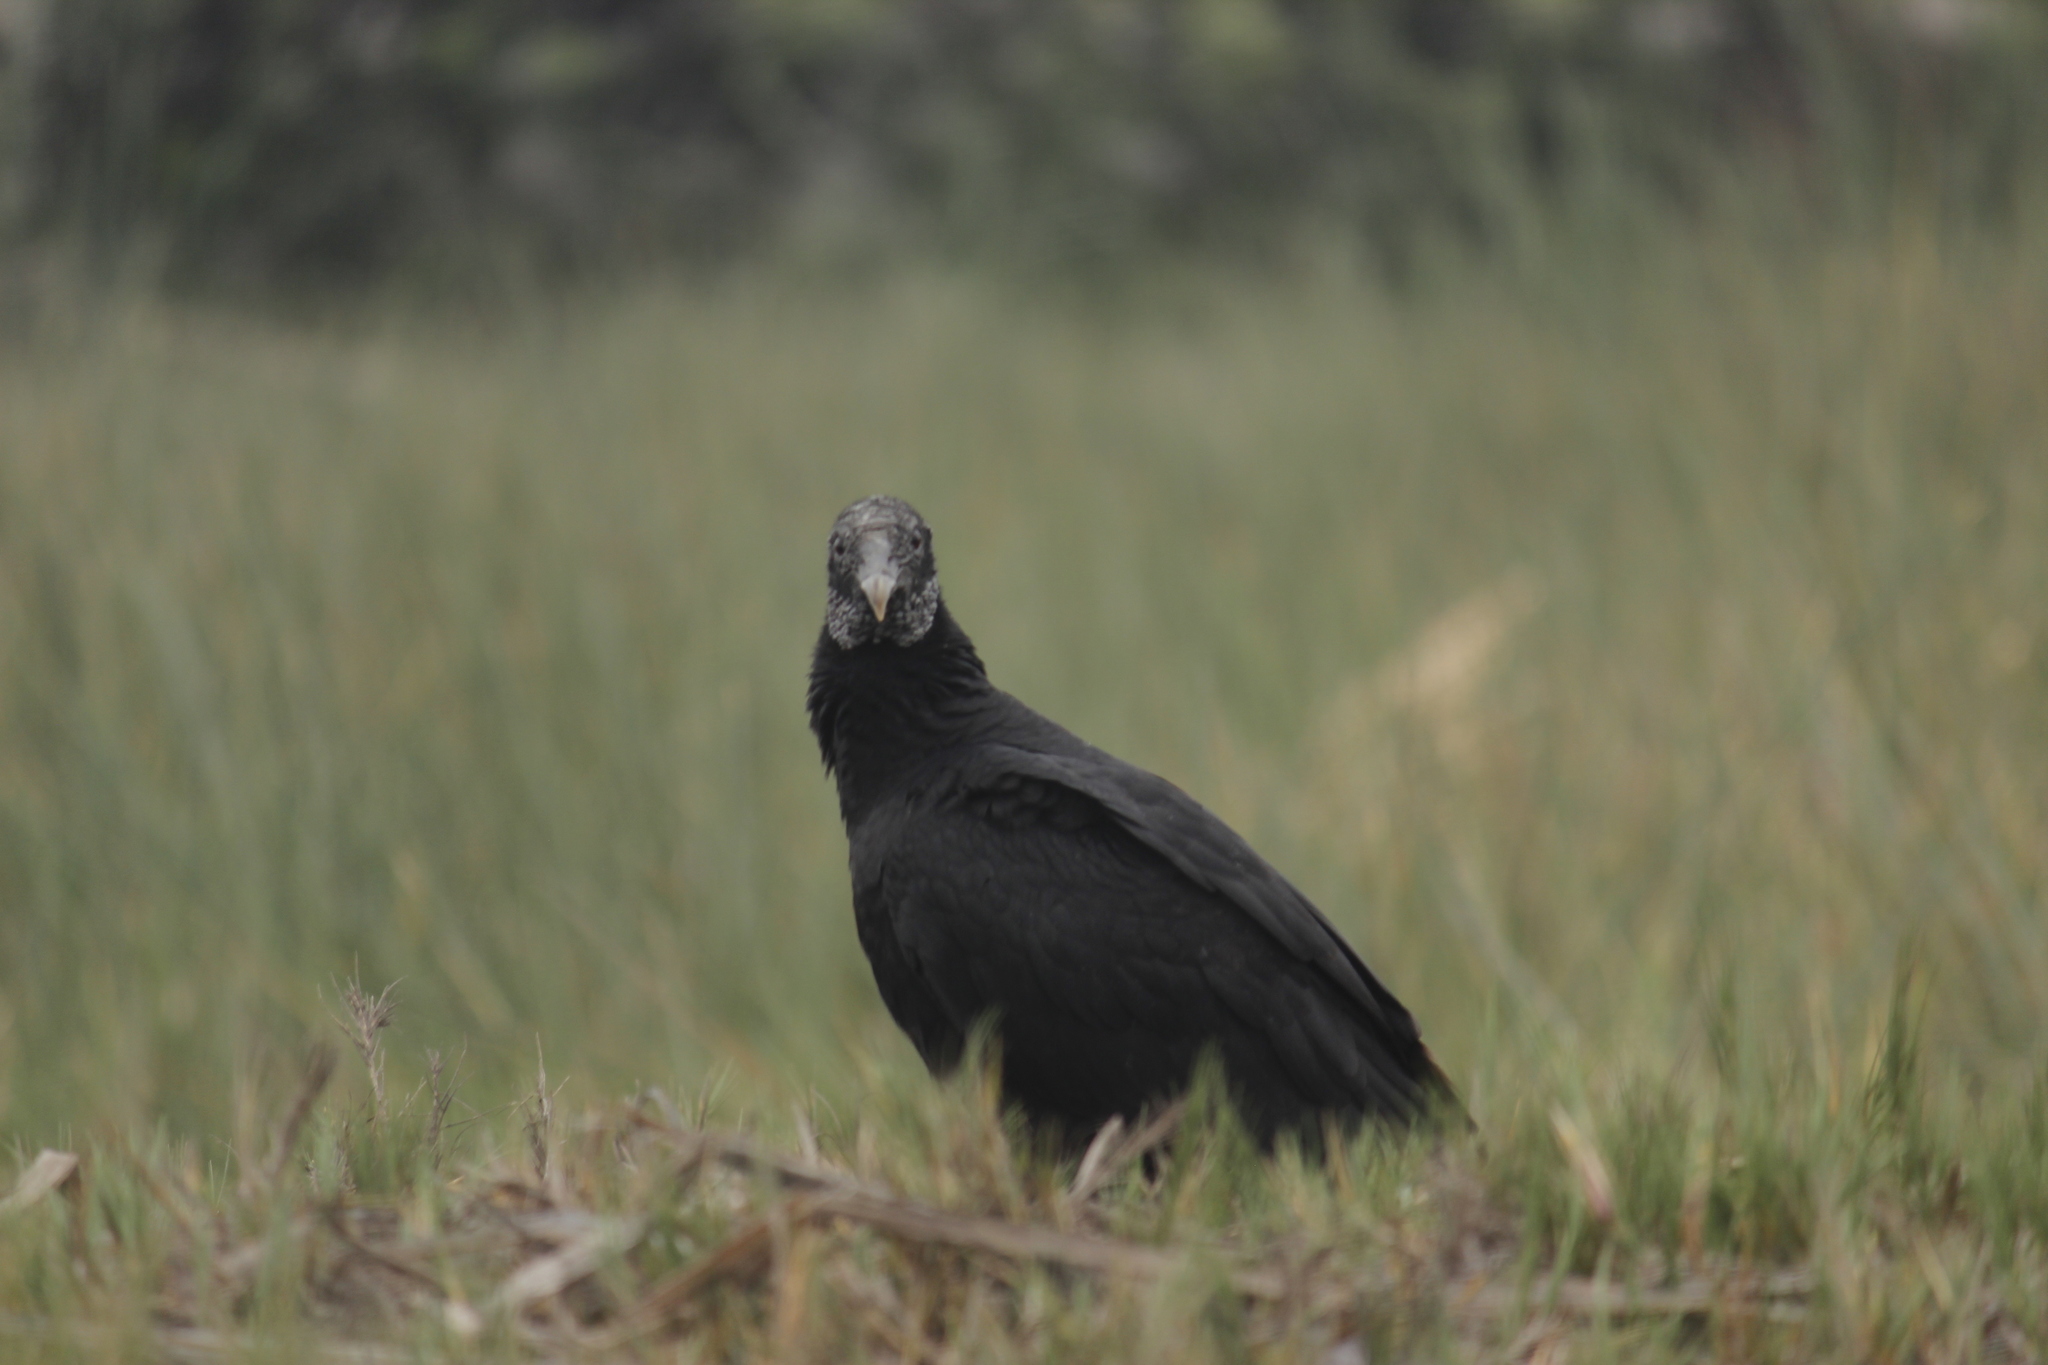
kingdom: Animalia
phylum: Chordata
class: Aves
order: Accipitriformes
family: Cathartidae
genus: Coragyps
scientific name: Coragyps atratus
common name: Black vulture
